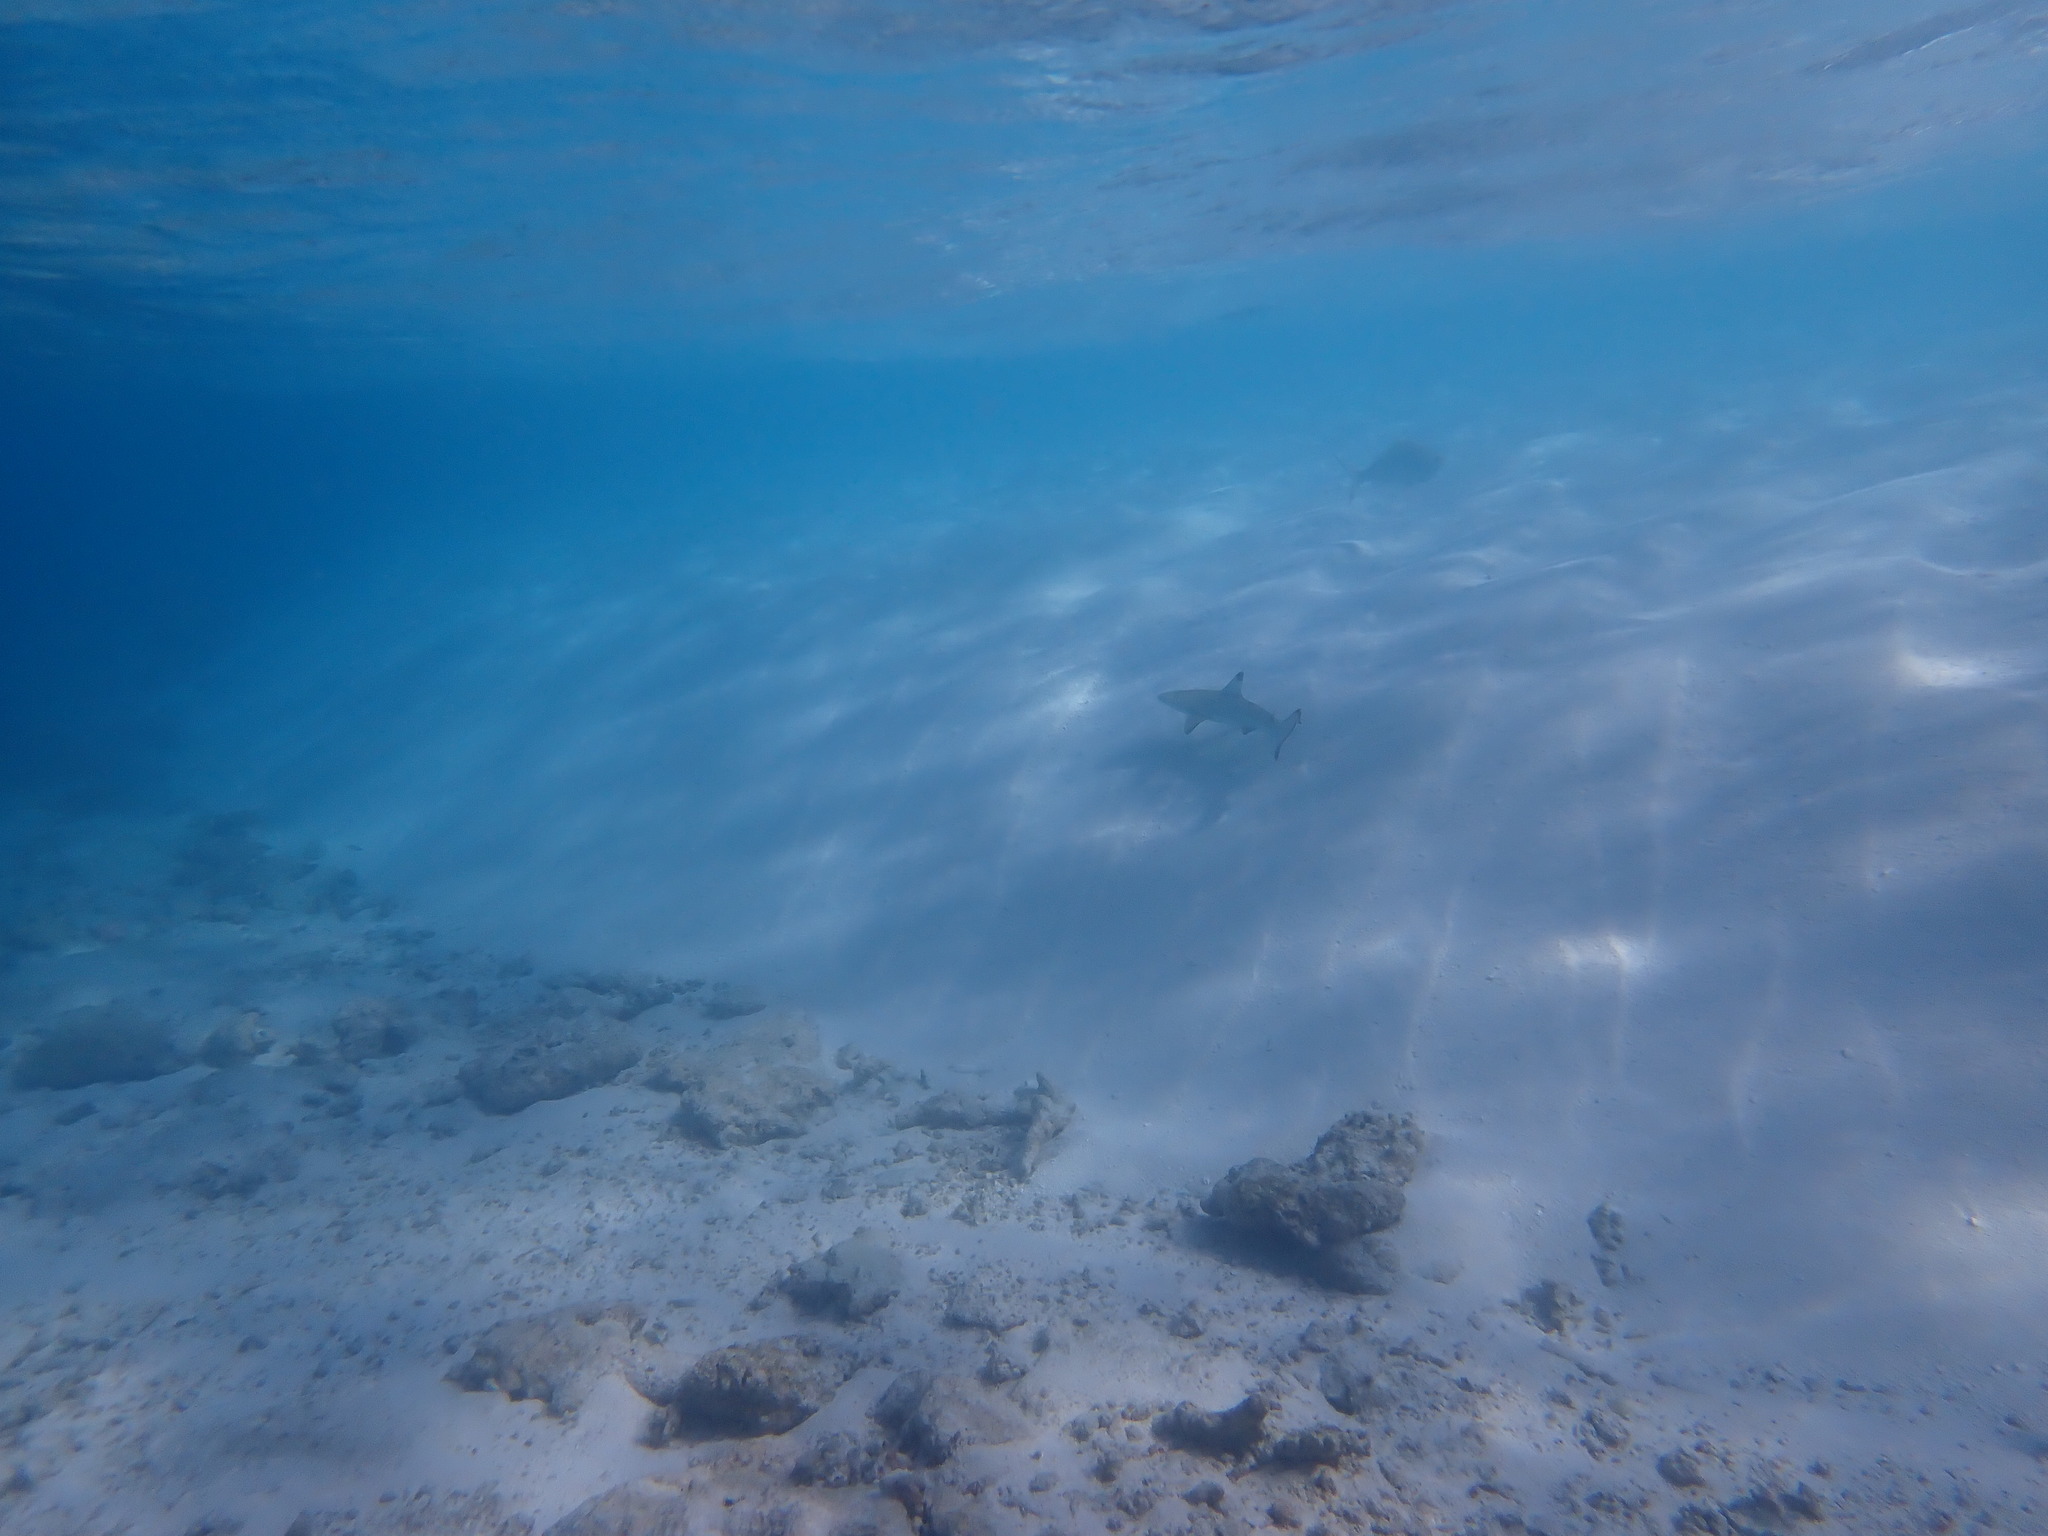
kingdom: Animalia
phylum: Chordata
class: Elasmobranchii
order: Carcharhiniformes
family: Carcharhinidae
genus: Carcharhinus
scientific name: Carcharhinus melanopterus
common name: Blacktip reef shark
